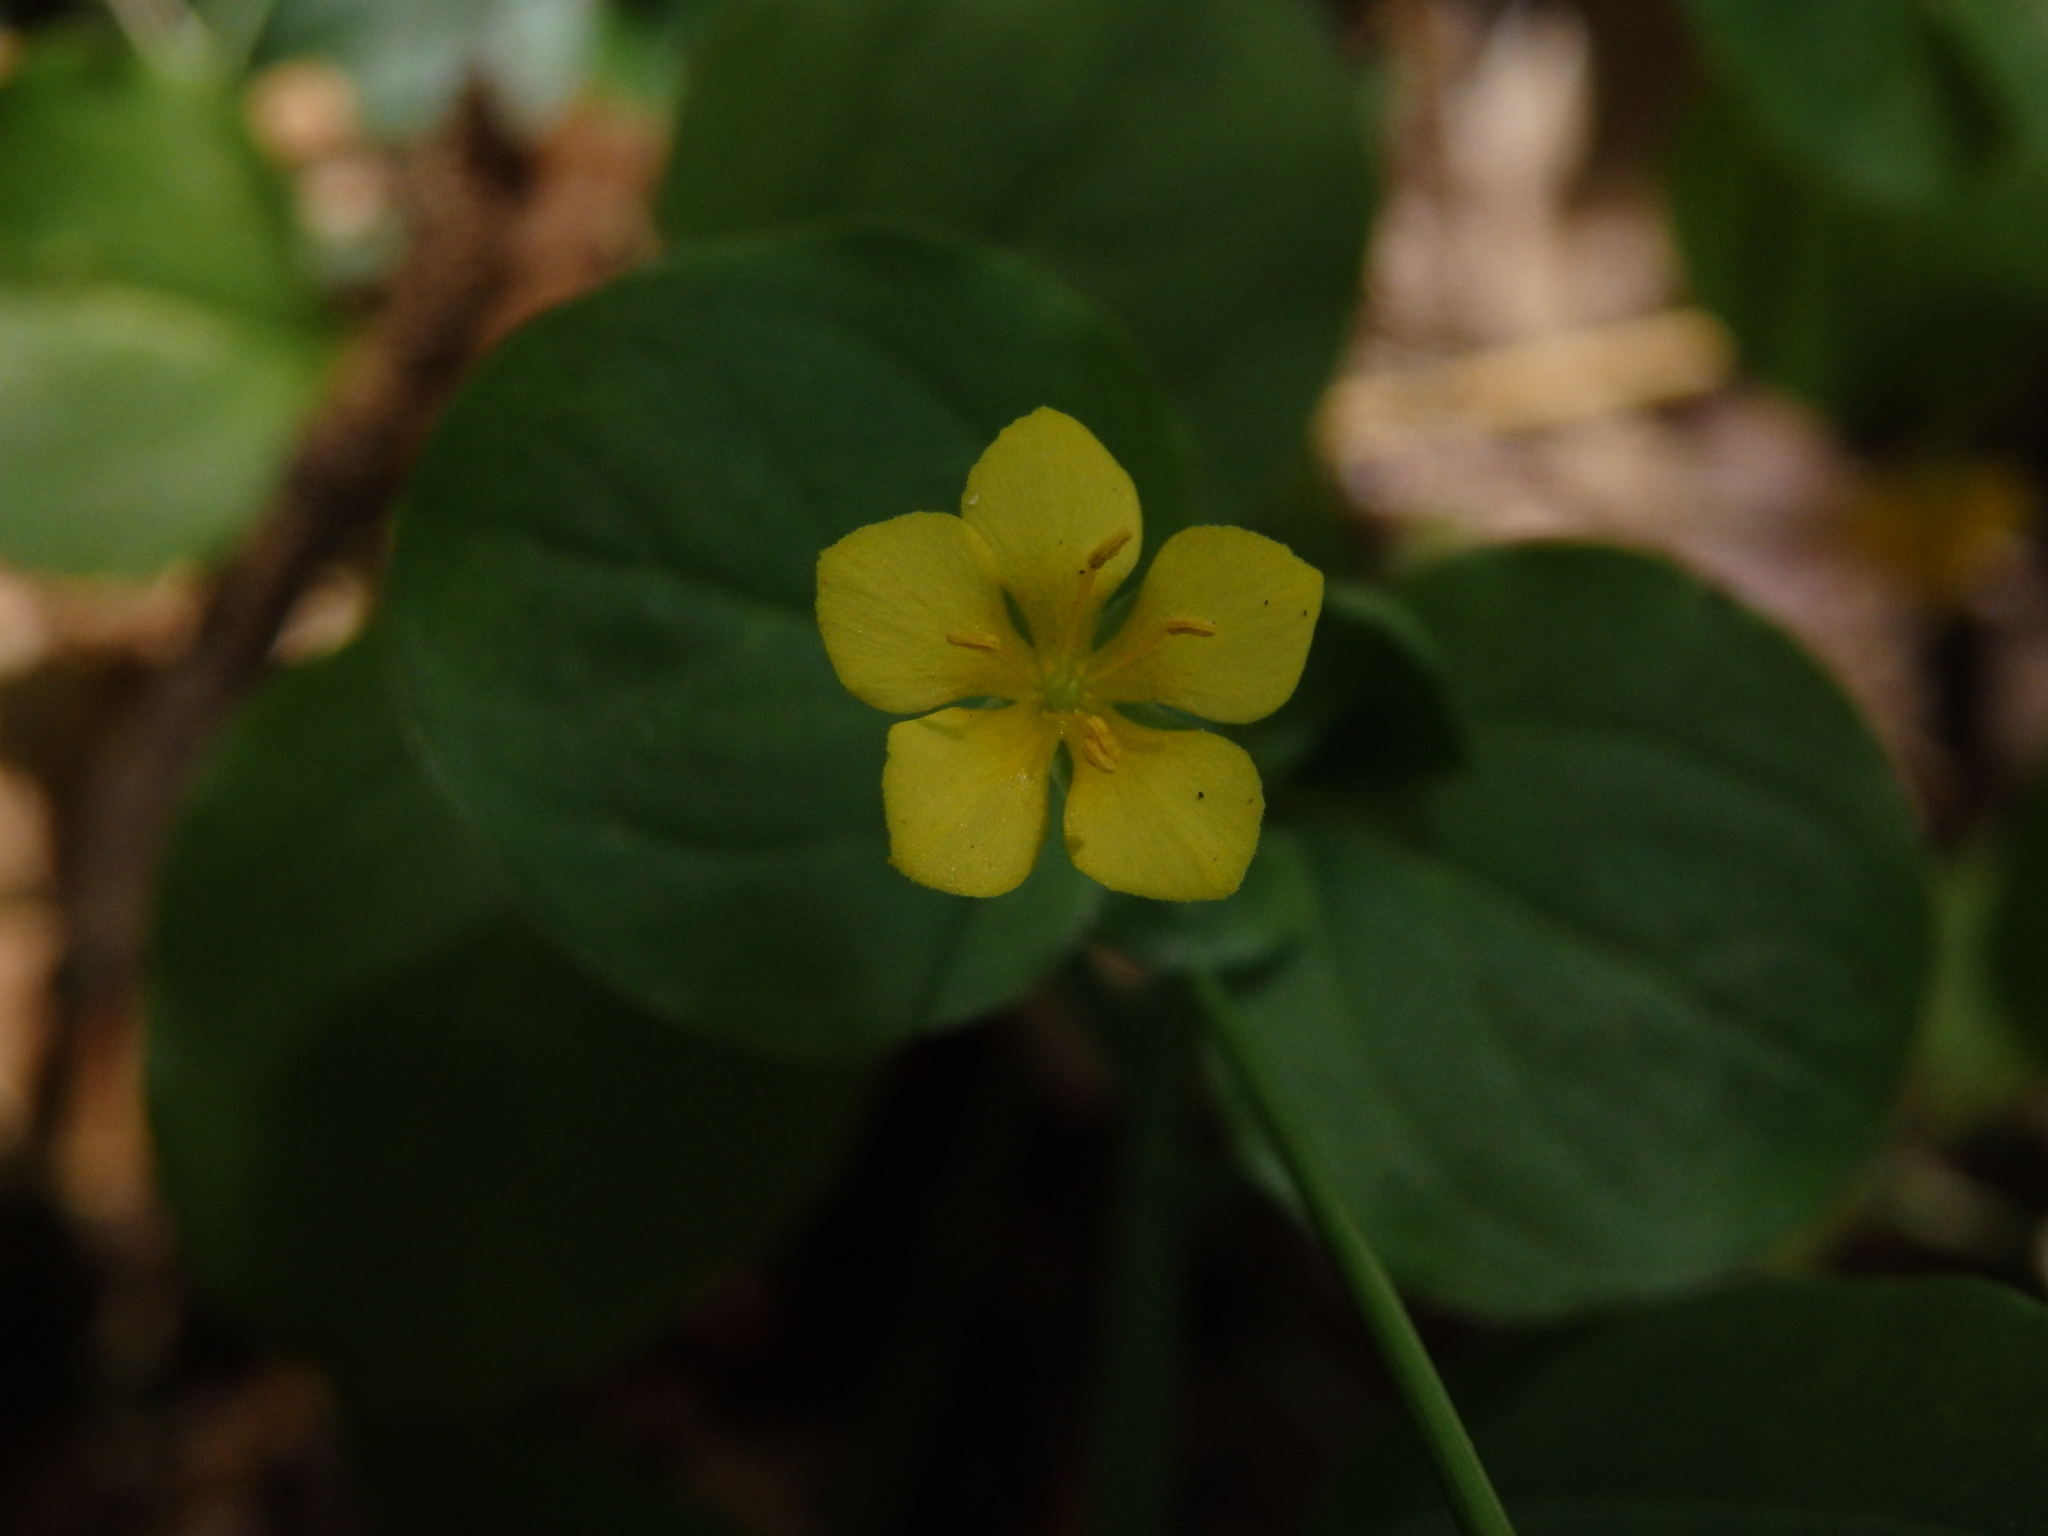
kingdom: Plantae
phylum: Tracheophyta
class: Magnoliopsida
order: Ericales
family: Primulaceae
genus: Lysimachia
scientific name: Lysimachia nemorum
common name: Yellow pimpernel
